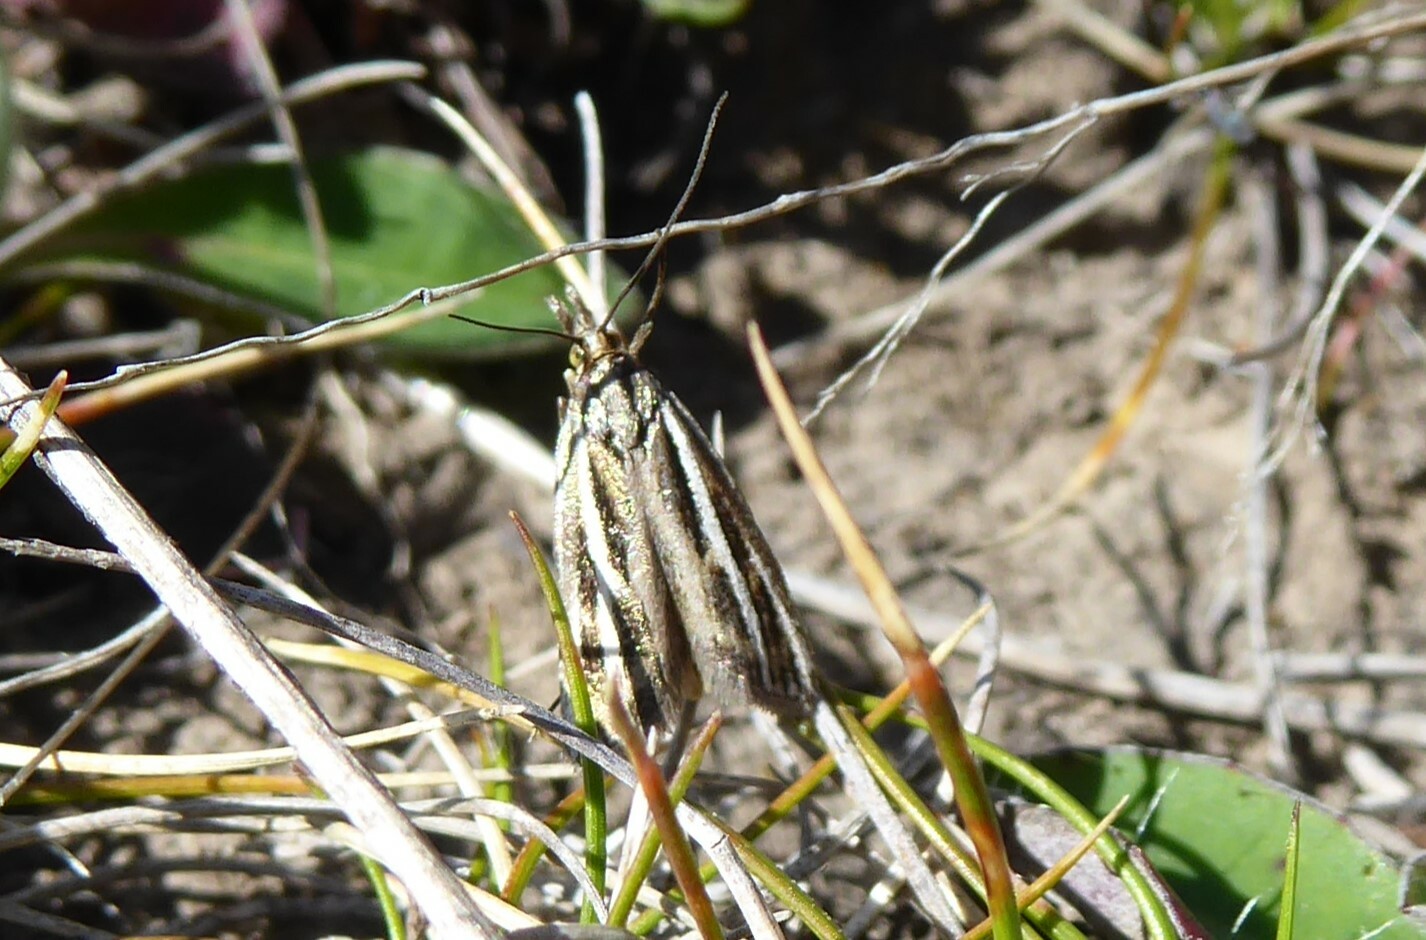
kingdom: Animalia
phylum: Arthropoda
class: Insecta
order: Lepidoptera
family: Crambidae
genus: Orocrambus
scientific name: Orocrambus corruptus
